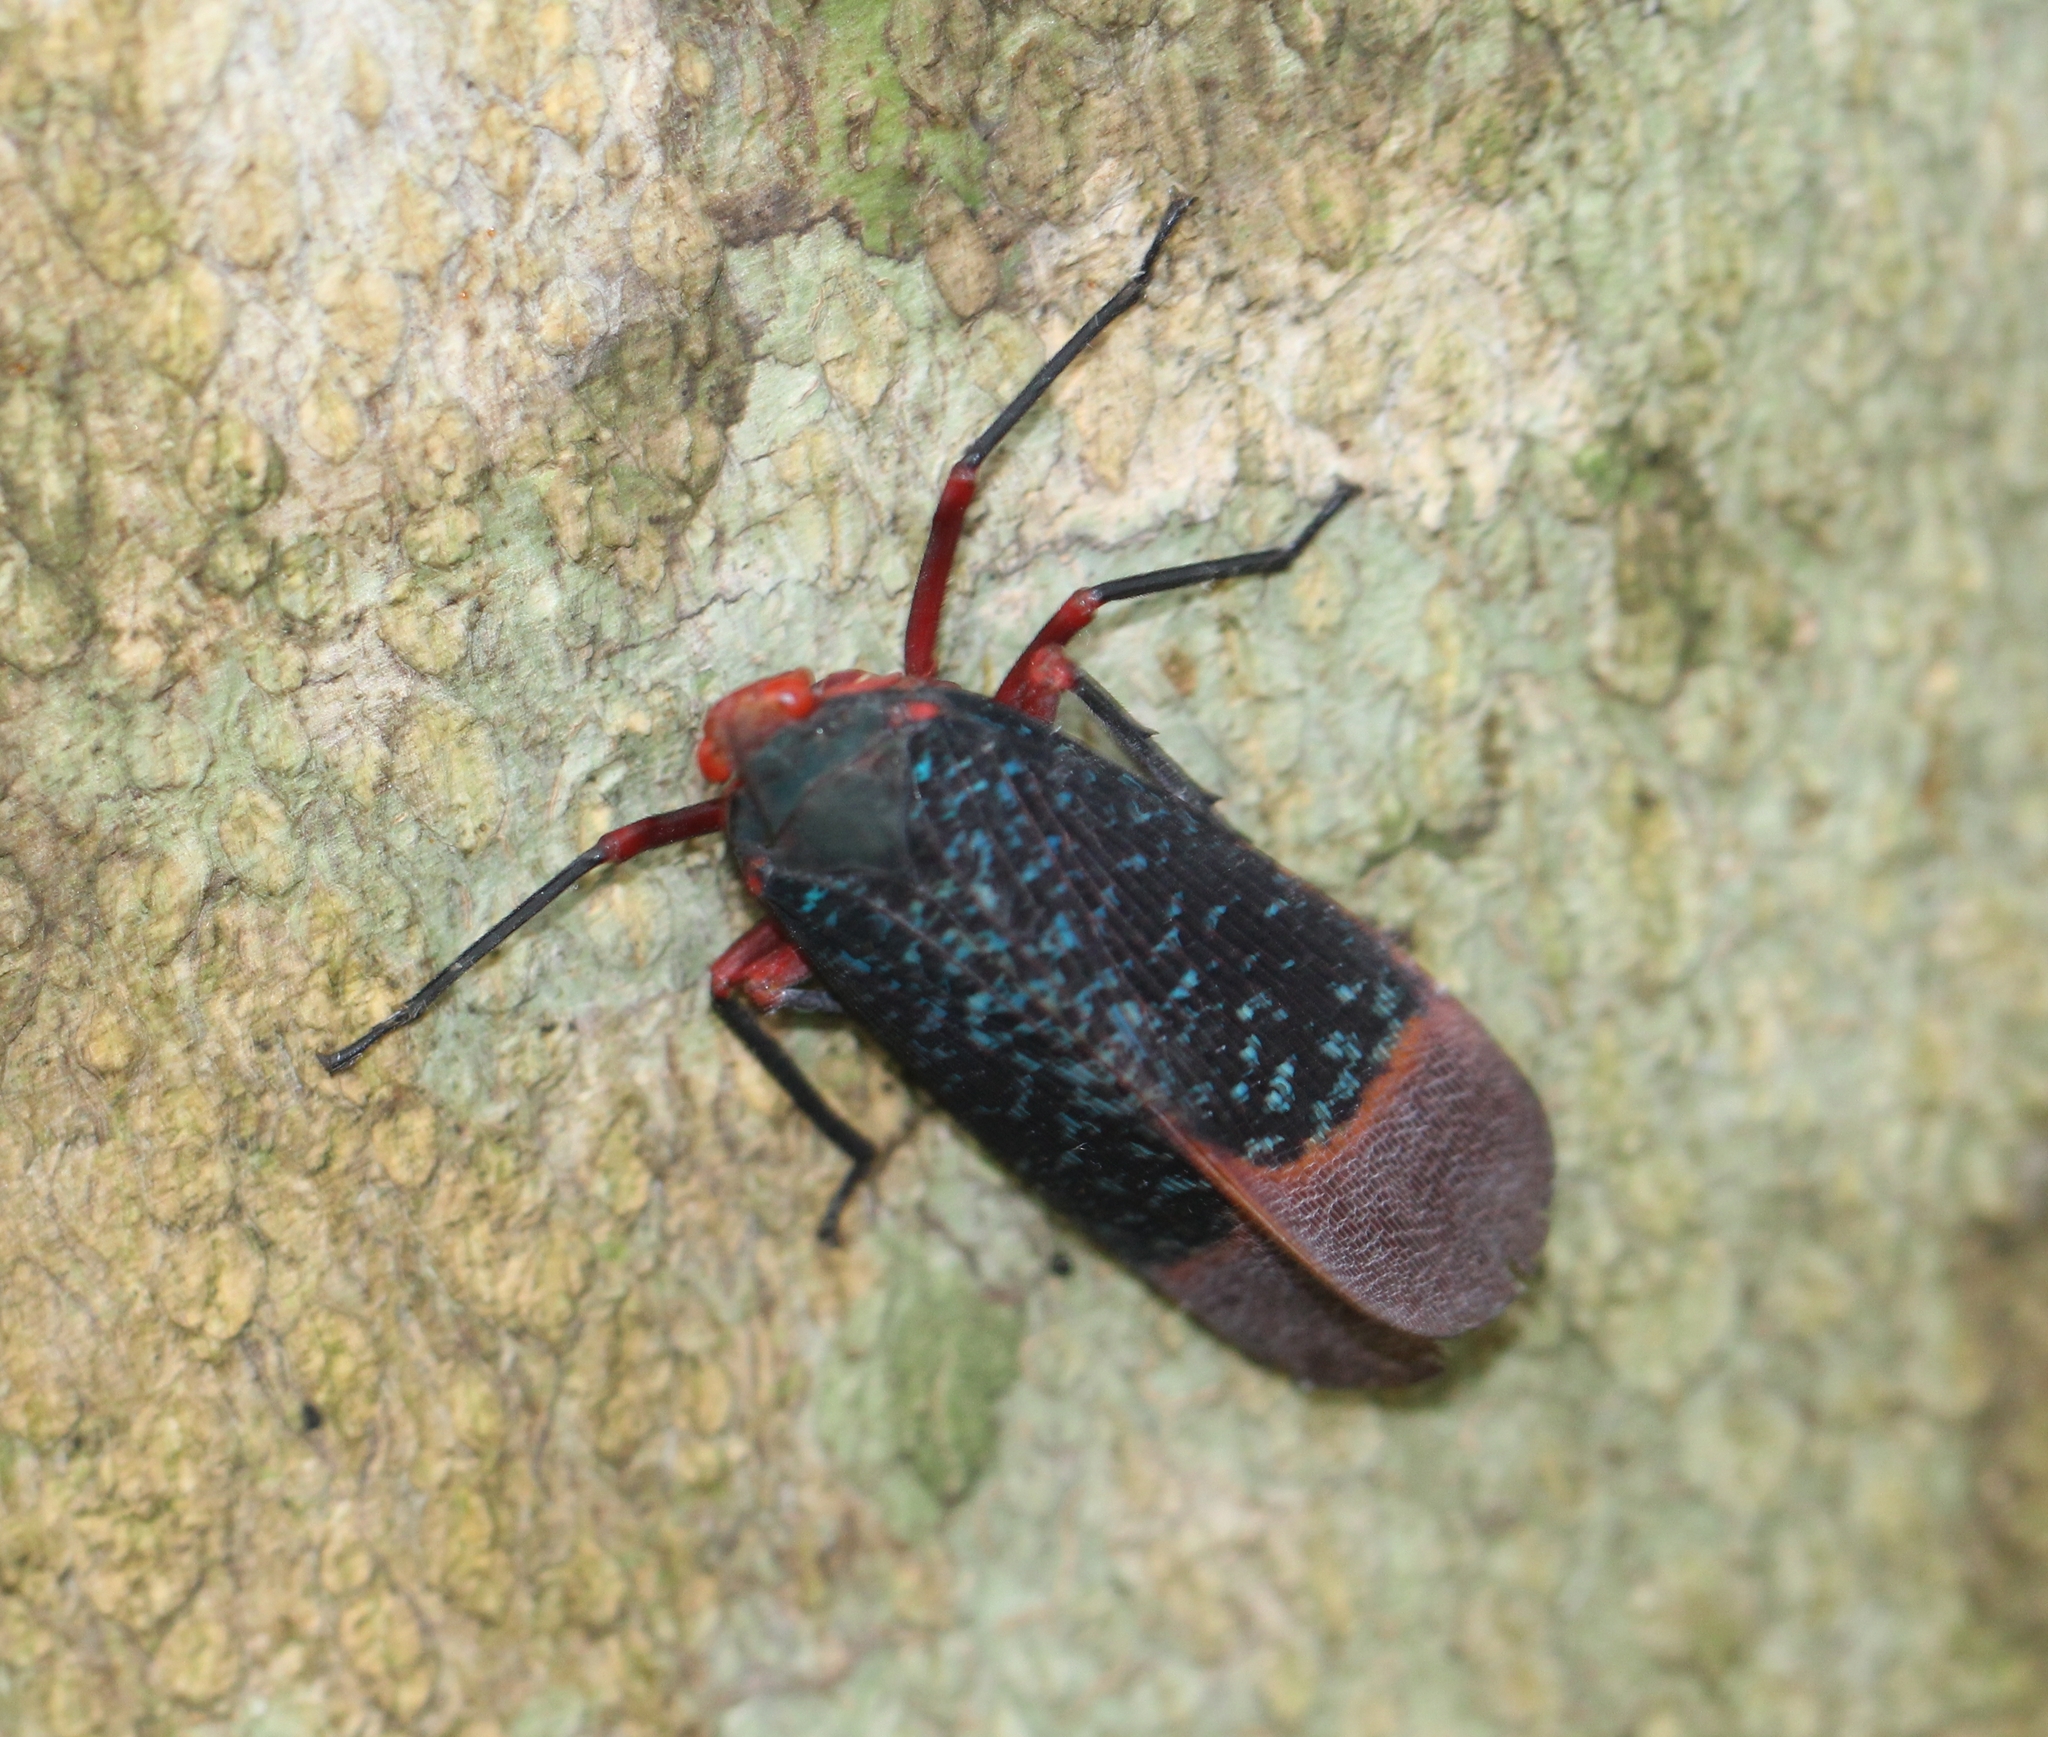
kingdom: Animalia
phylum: Arthropoda
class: Insecta
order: Hemiptera
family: Fulgoridae
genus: Kalidasa
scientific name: Kalidasa lanata
